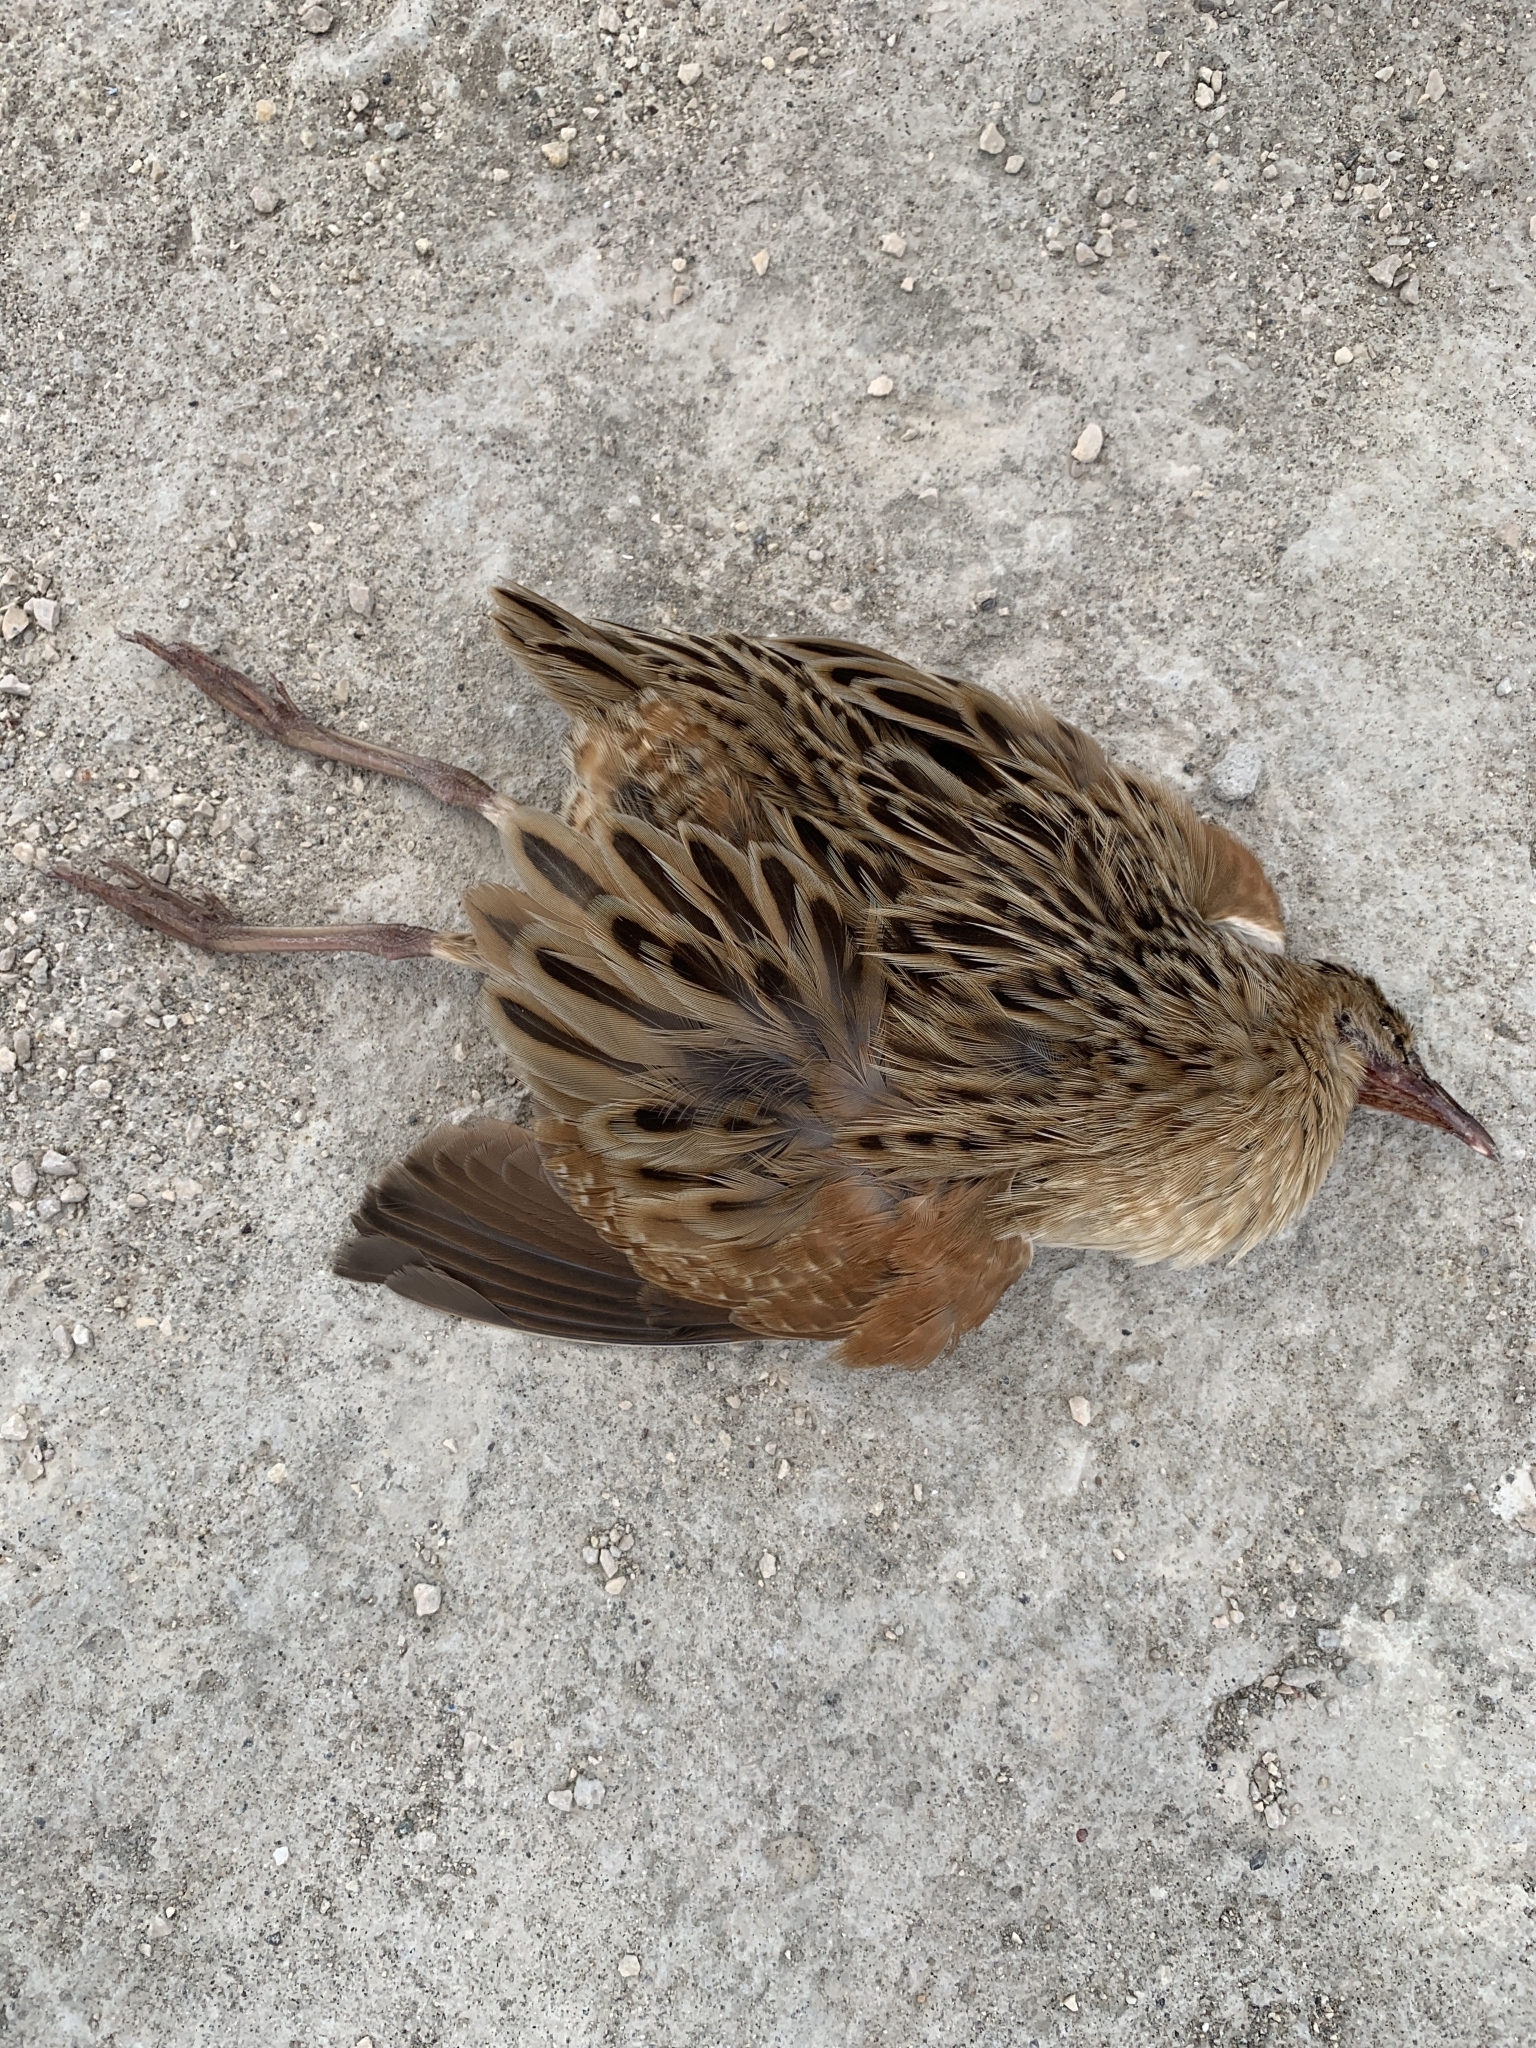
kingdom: Animalia
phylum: Chordata
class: Aves
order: Gruiformes
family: Rallidae
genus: Crex
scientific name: Crex crex
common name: Corn crake
